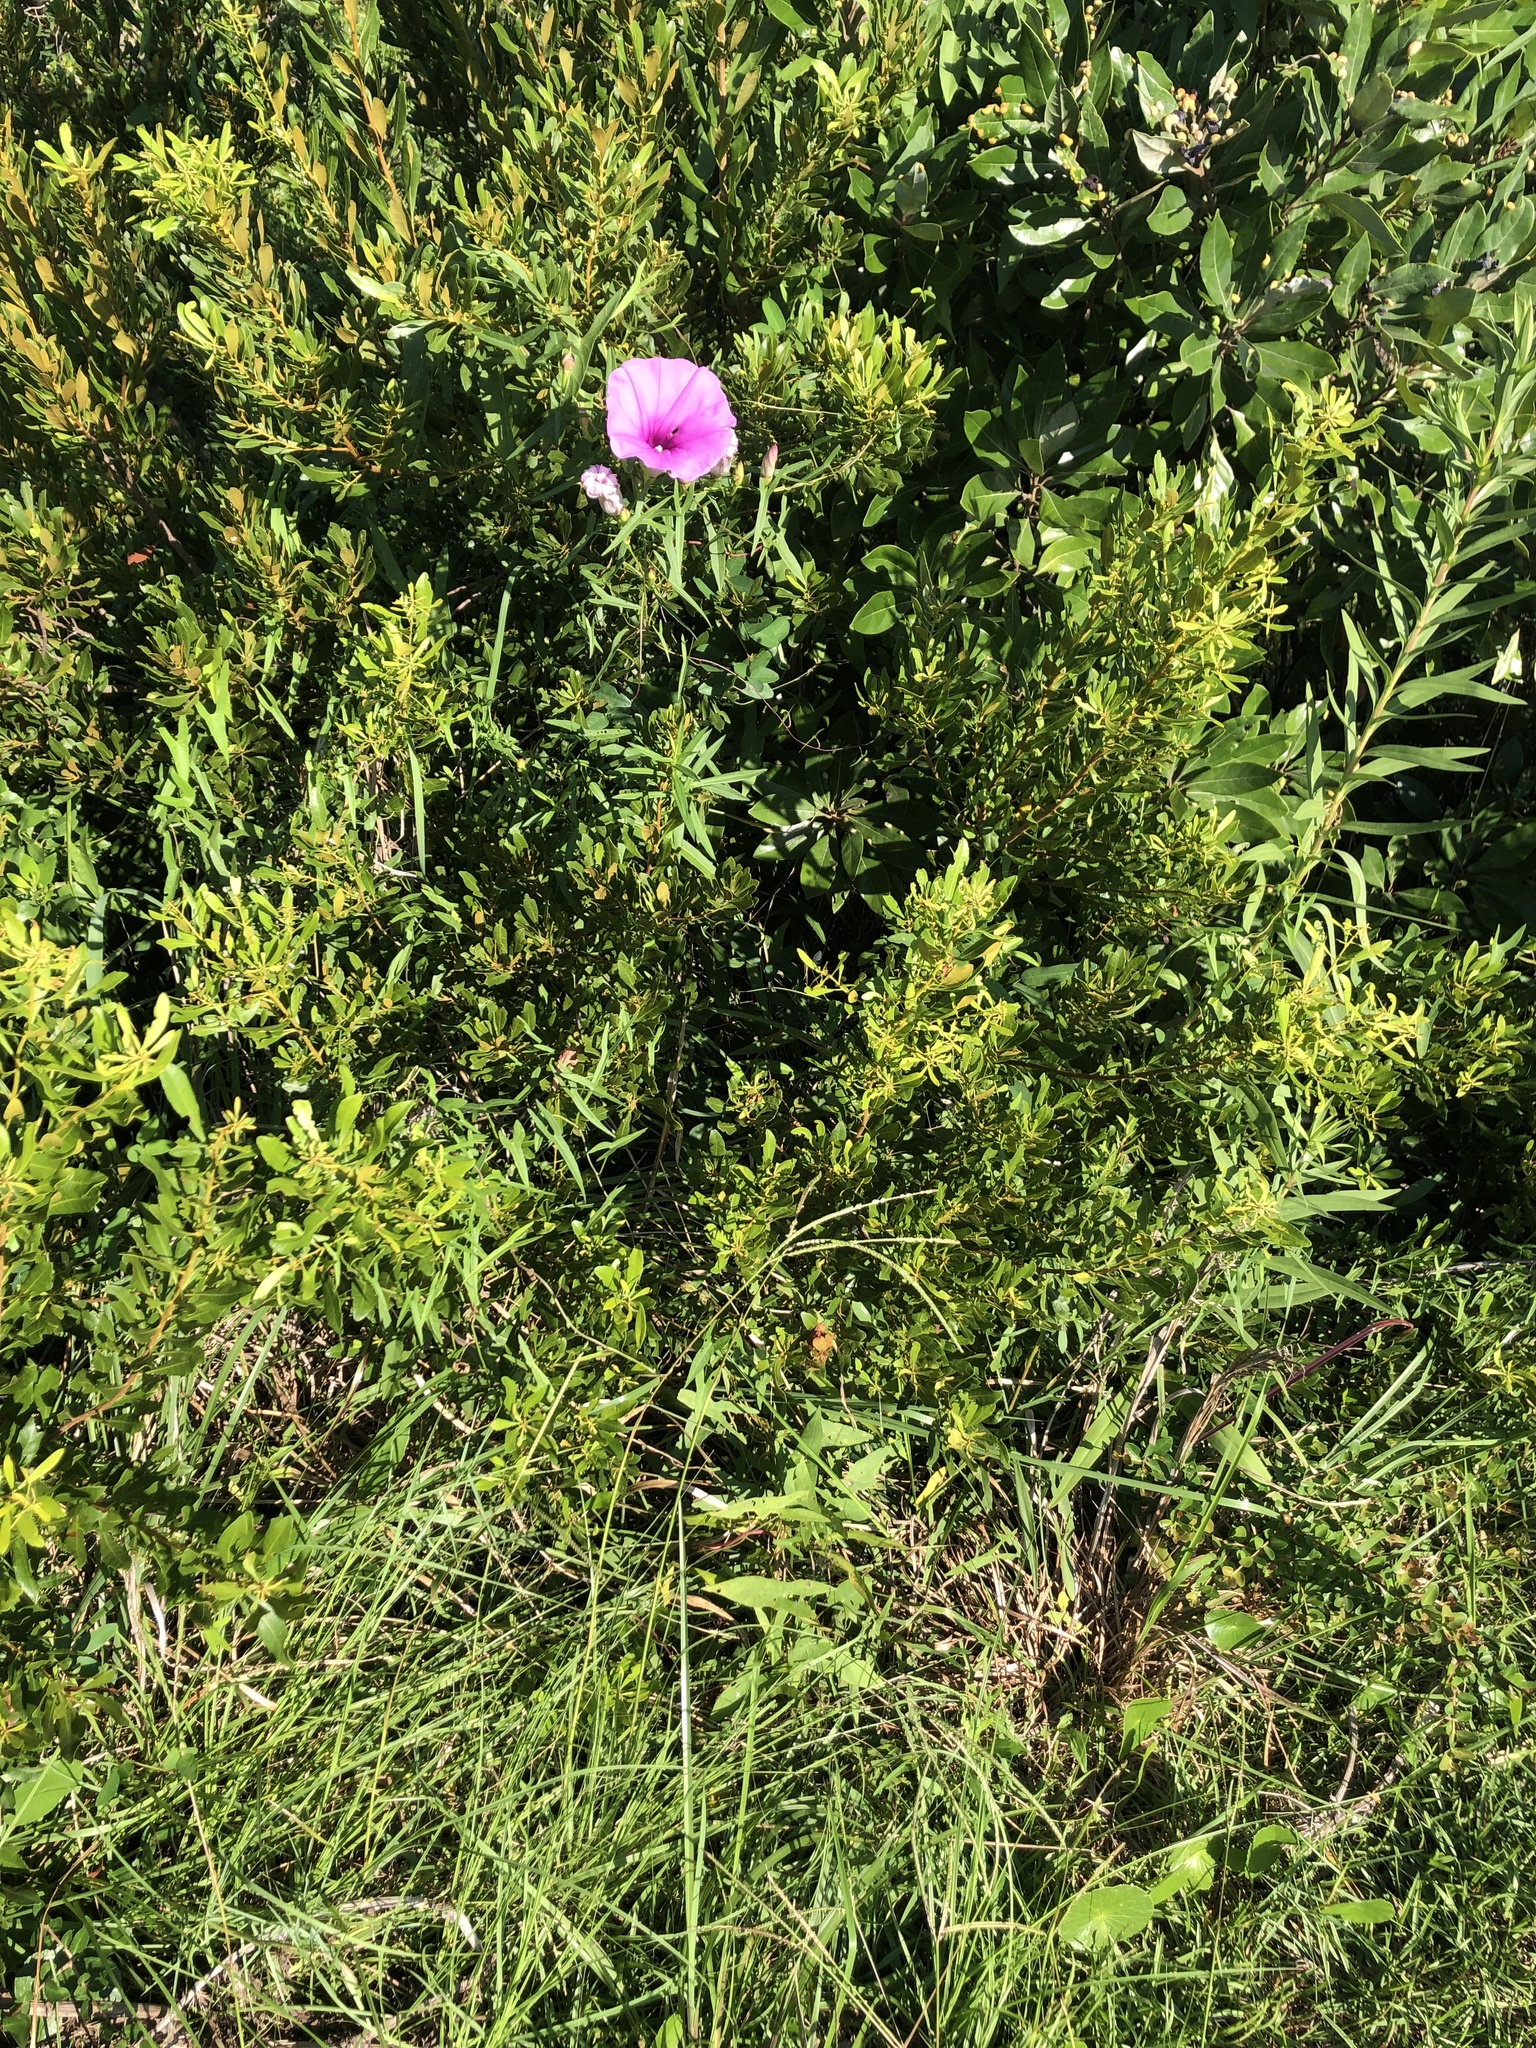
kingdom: Plantae
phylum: Tracheophyta
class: Magnoliopsida
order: Solanales
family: Convolvulaceae
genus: Ipomoea
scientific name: Ipomoea sagittata
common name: Saltmarsh morning glory
